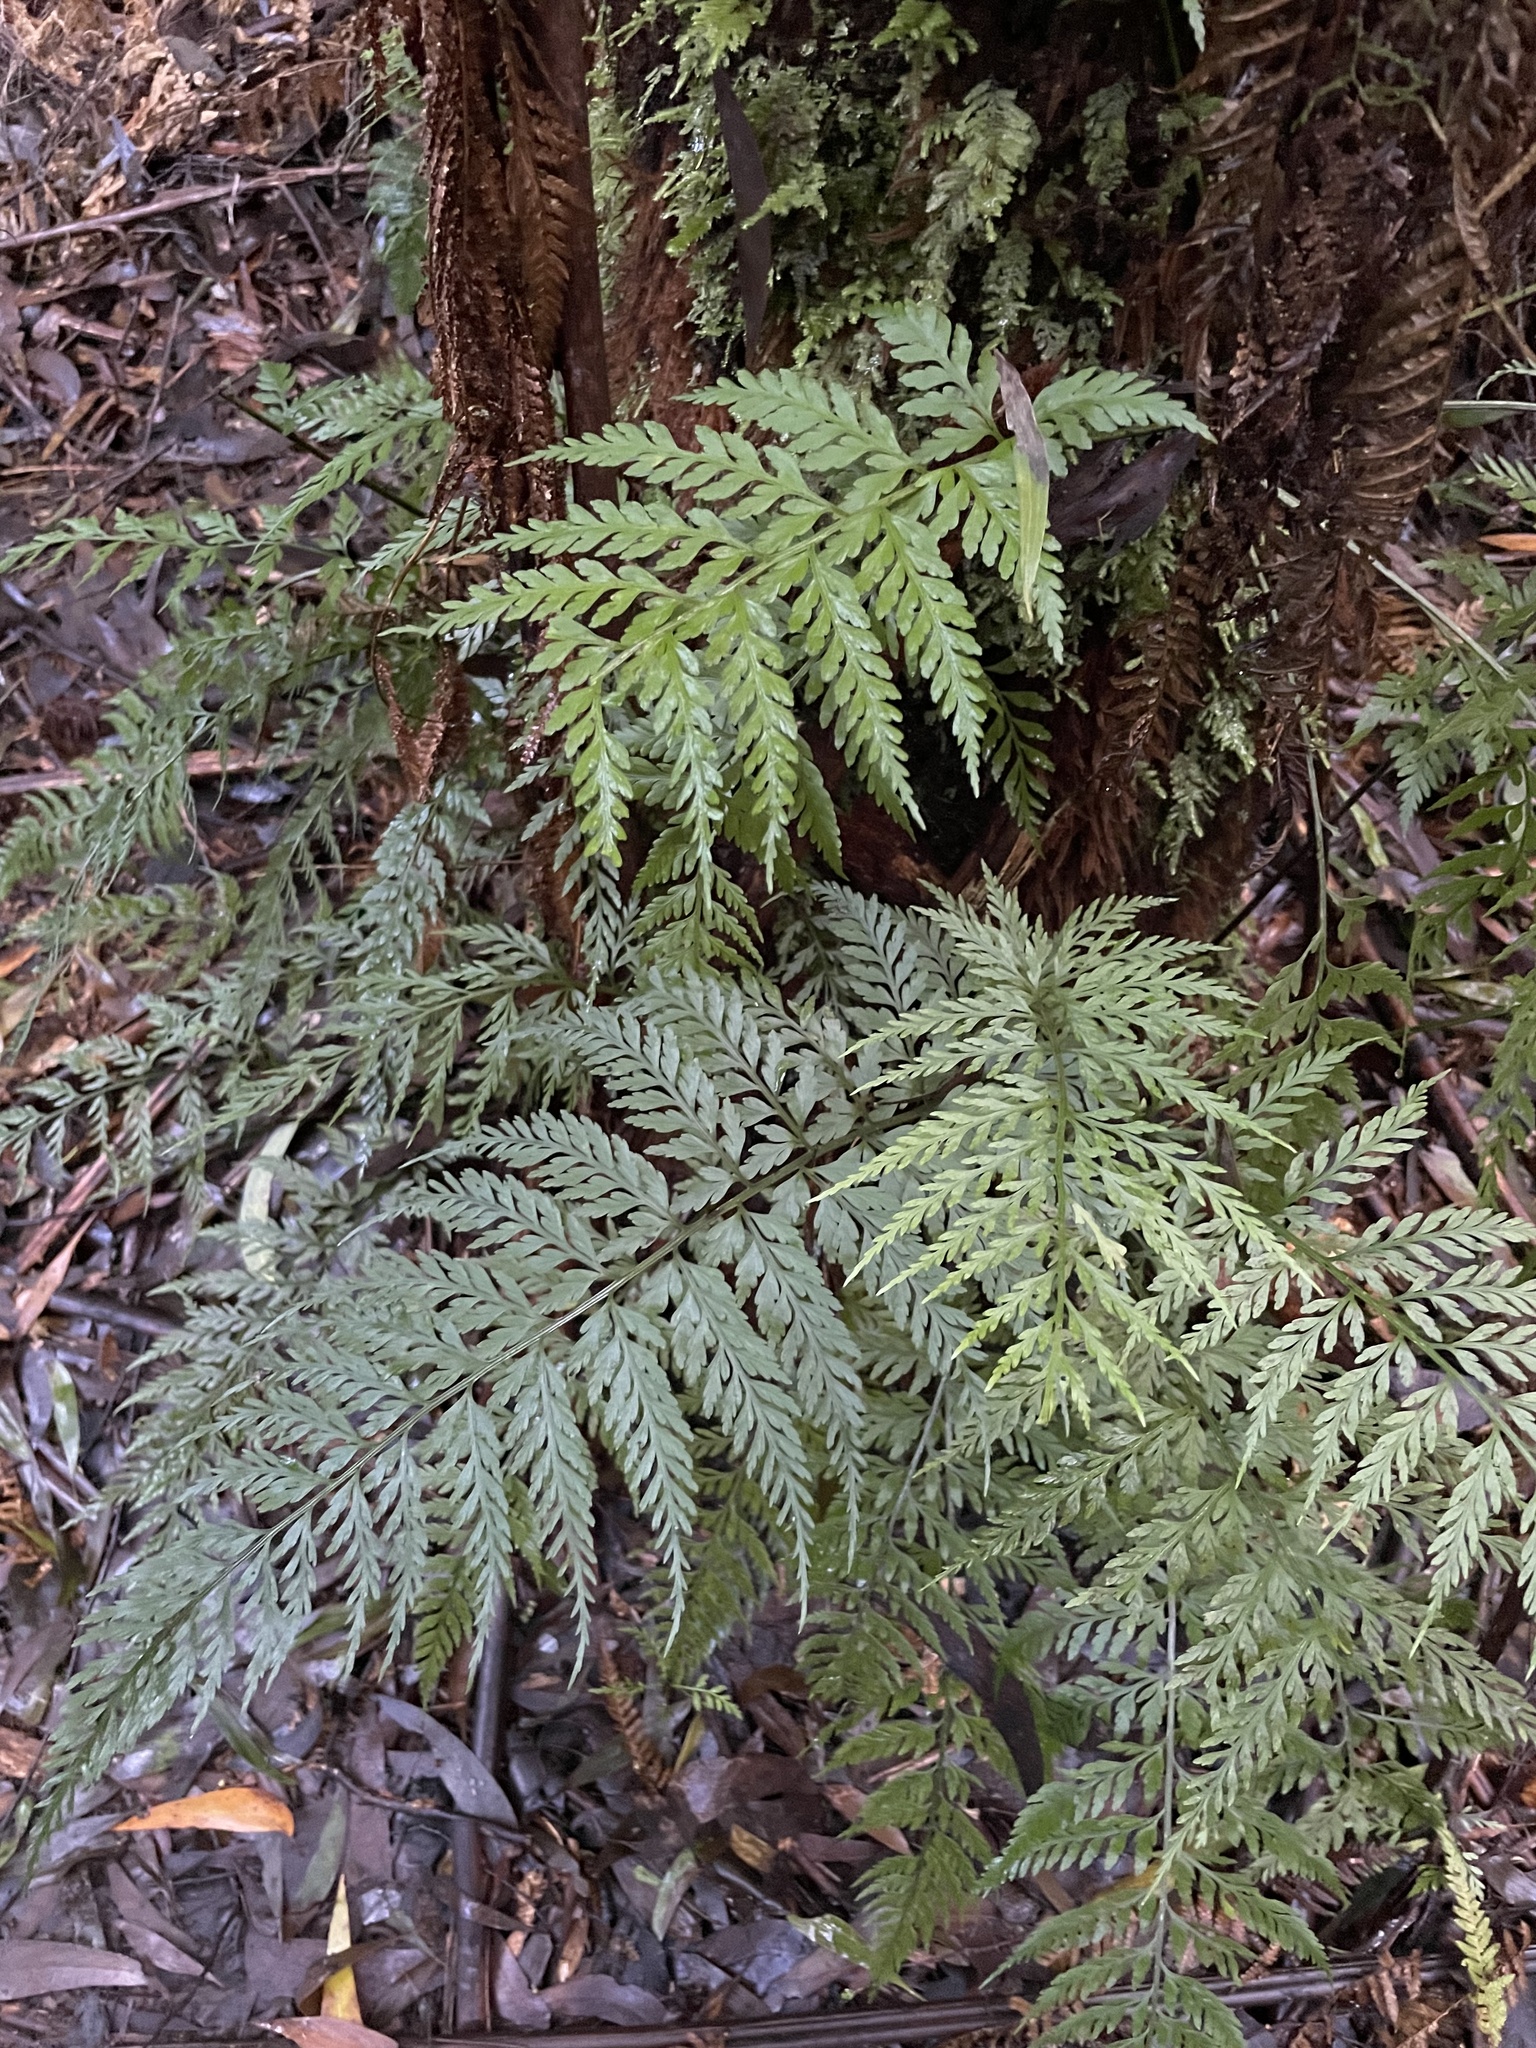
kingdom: Plantae
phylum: Tracheophyta
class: Polypodiopsida
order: Polypodiales
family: Aspleniaceae
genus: Asplenium
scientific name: Asplenium
